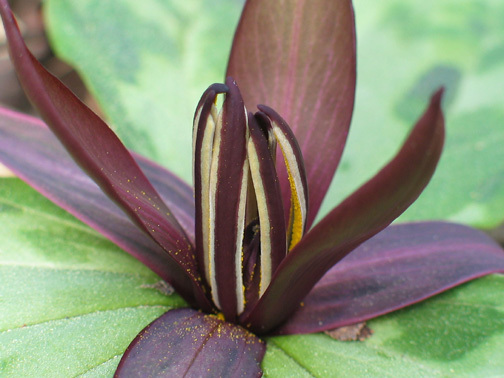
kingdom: Plantae
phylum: Tracheophyta
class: Liliopsida
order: Liliales
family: Melanthiaceae
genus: Trillium
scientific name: Trillium reliquum
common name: Relict trillium
